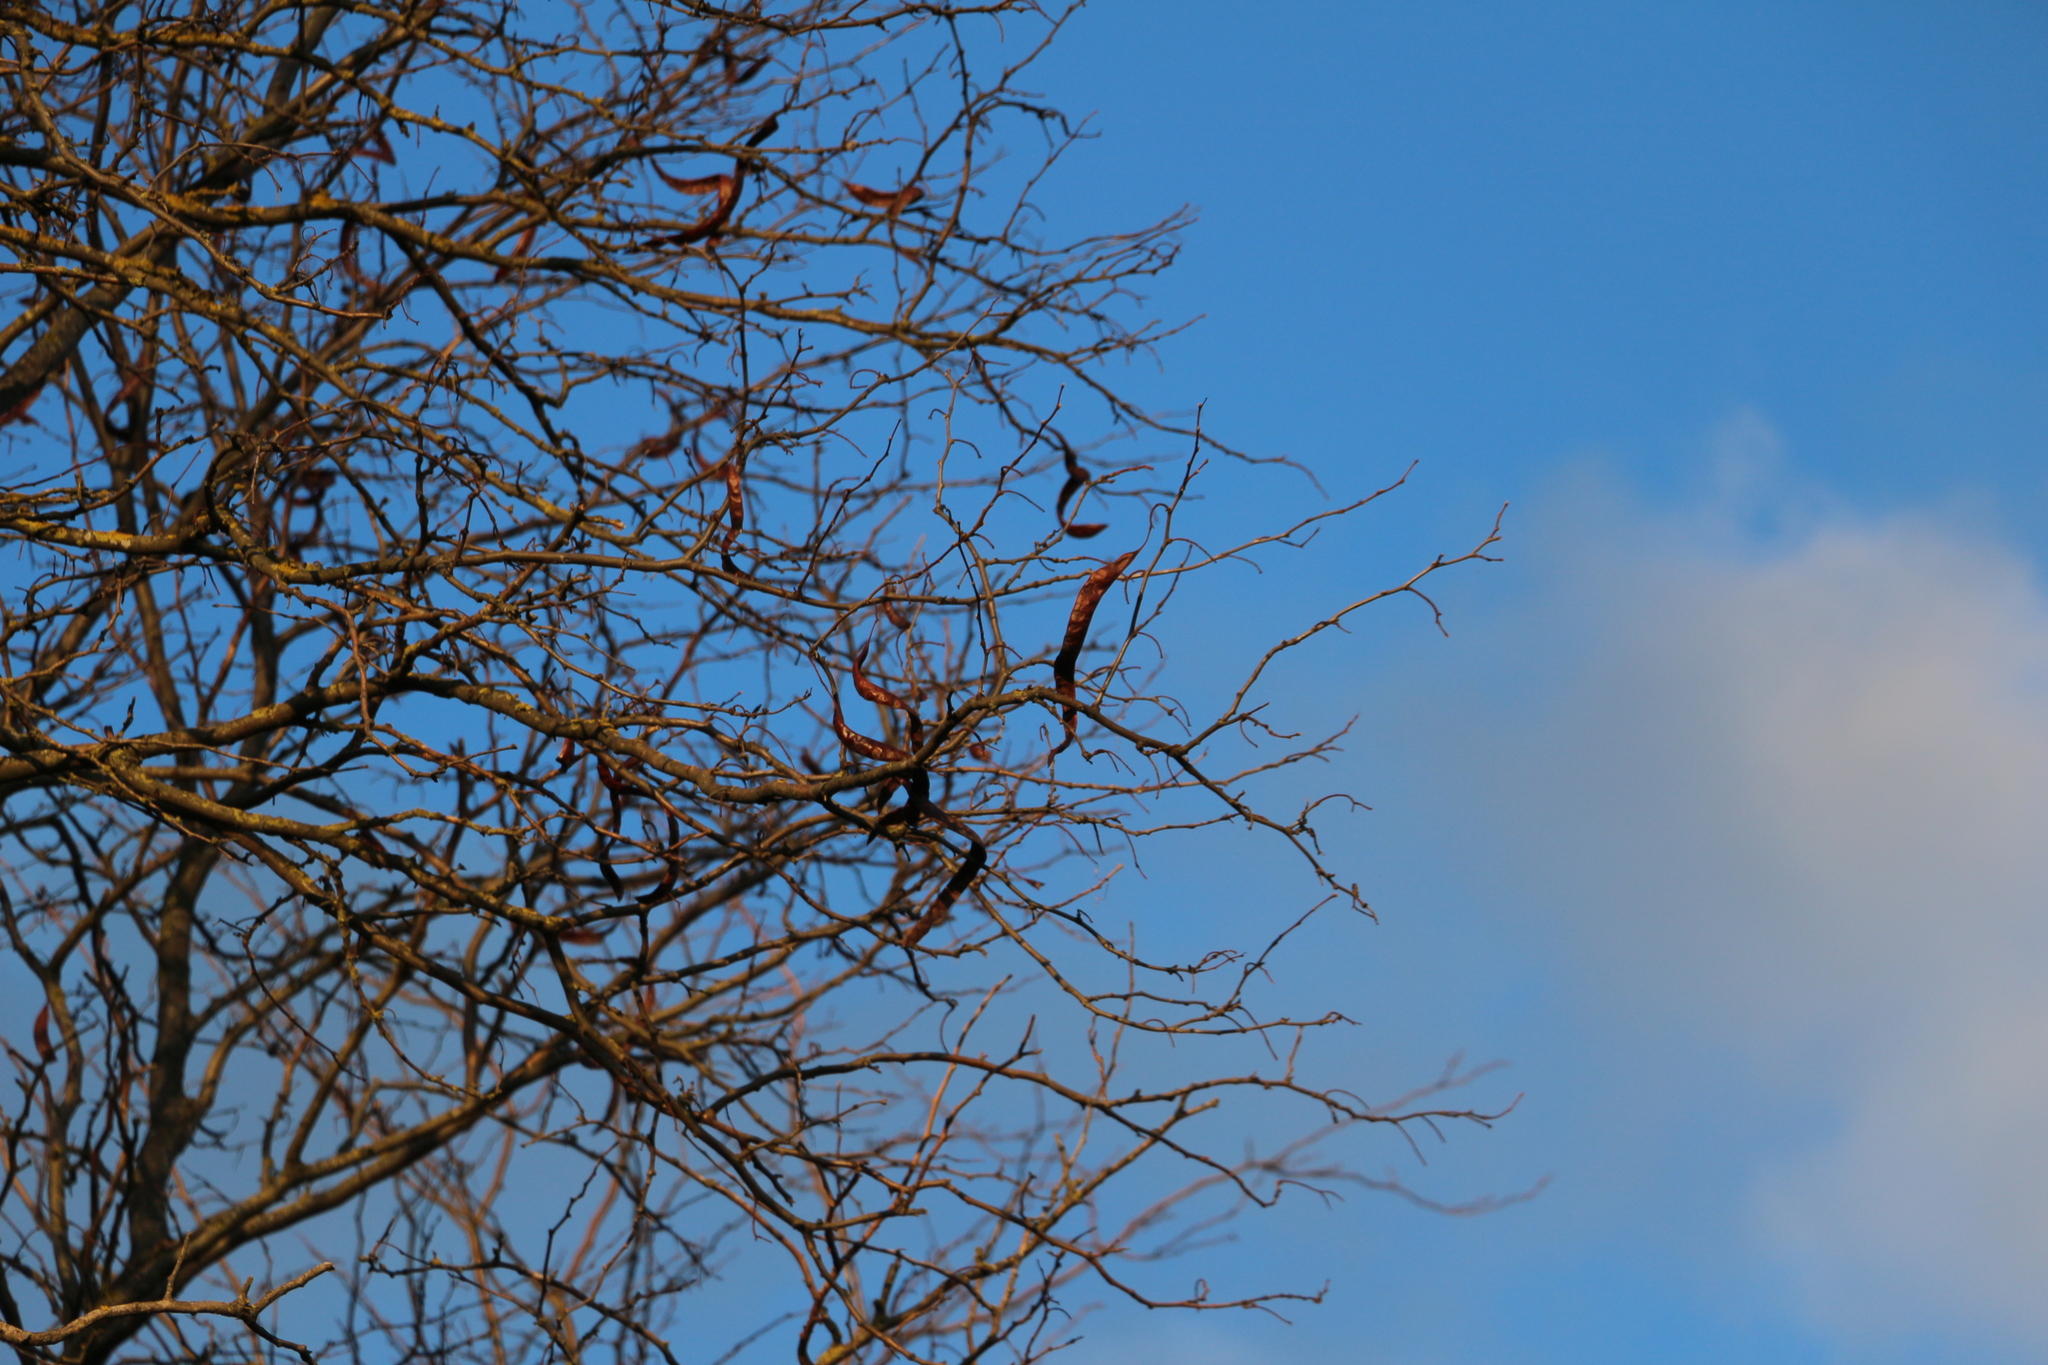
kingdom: Plantae
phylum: Tracheophyta
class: Magnoliopsida
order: Fabales
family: Fabaceae
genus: Gleditsia
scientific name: Gleditsia triacanthos
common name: Common honeylocust
